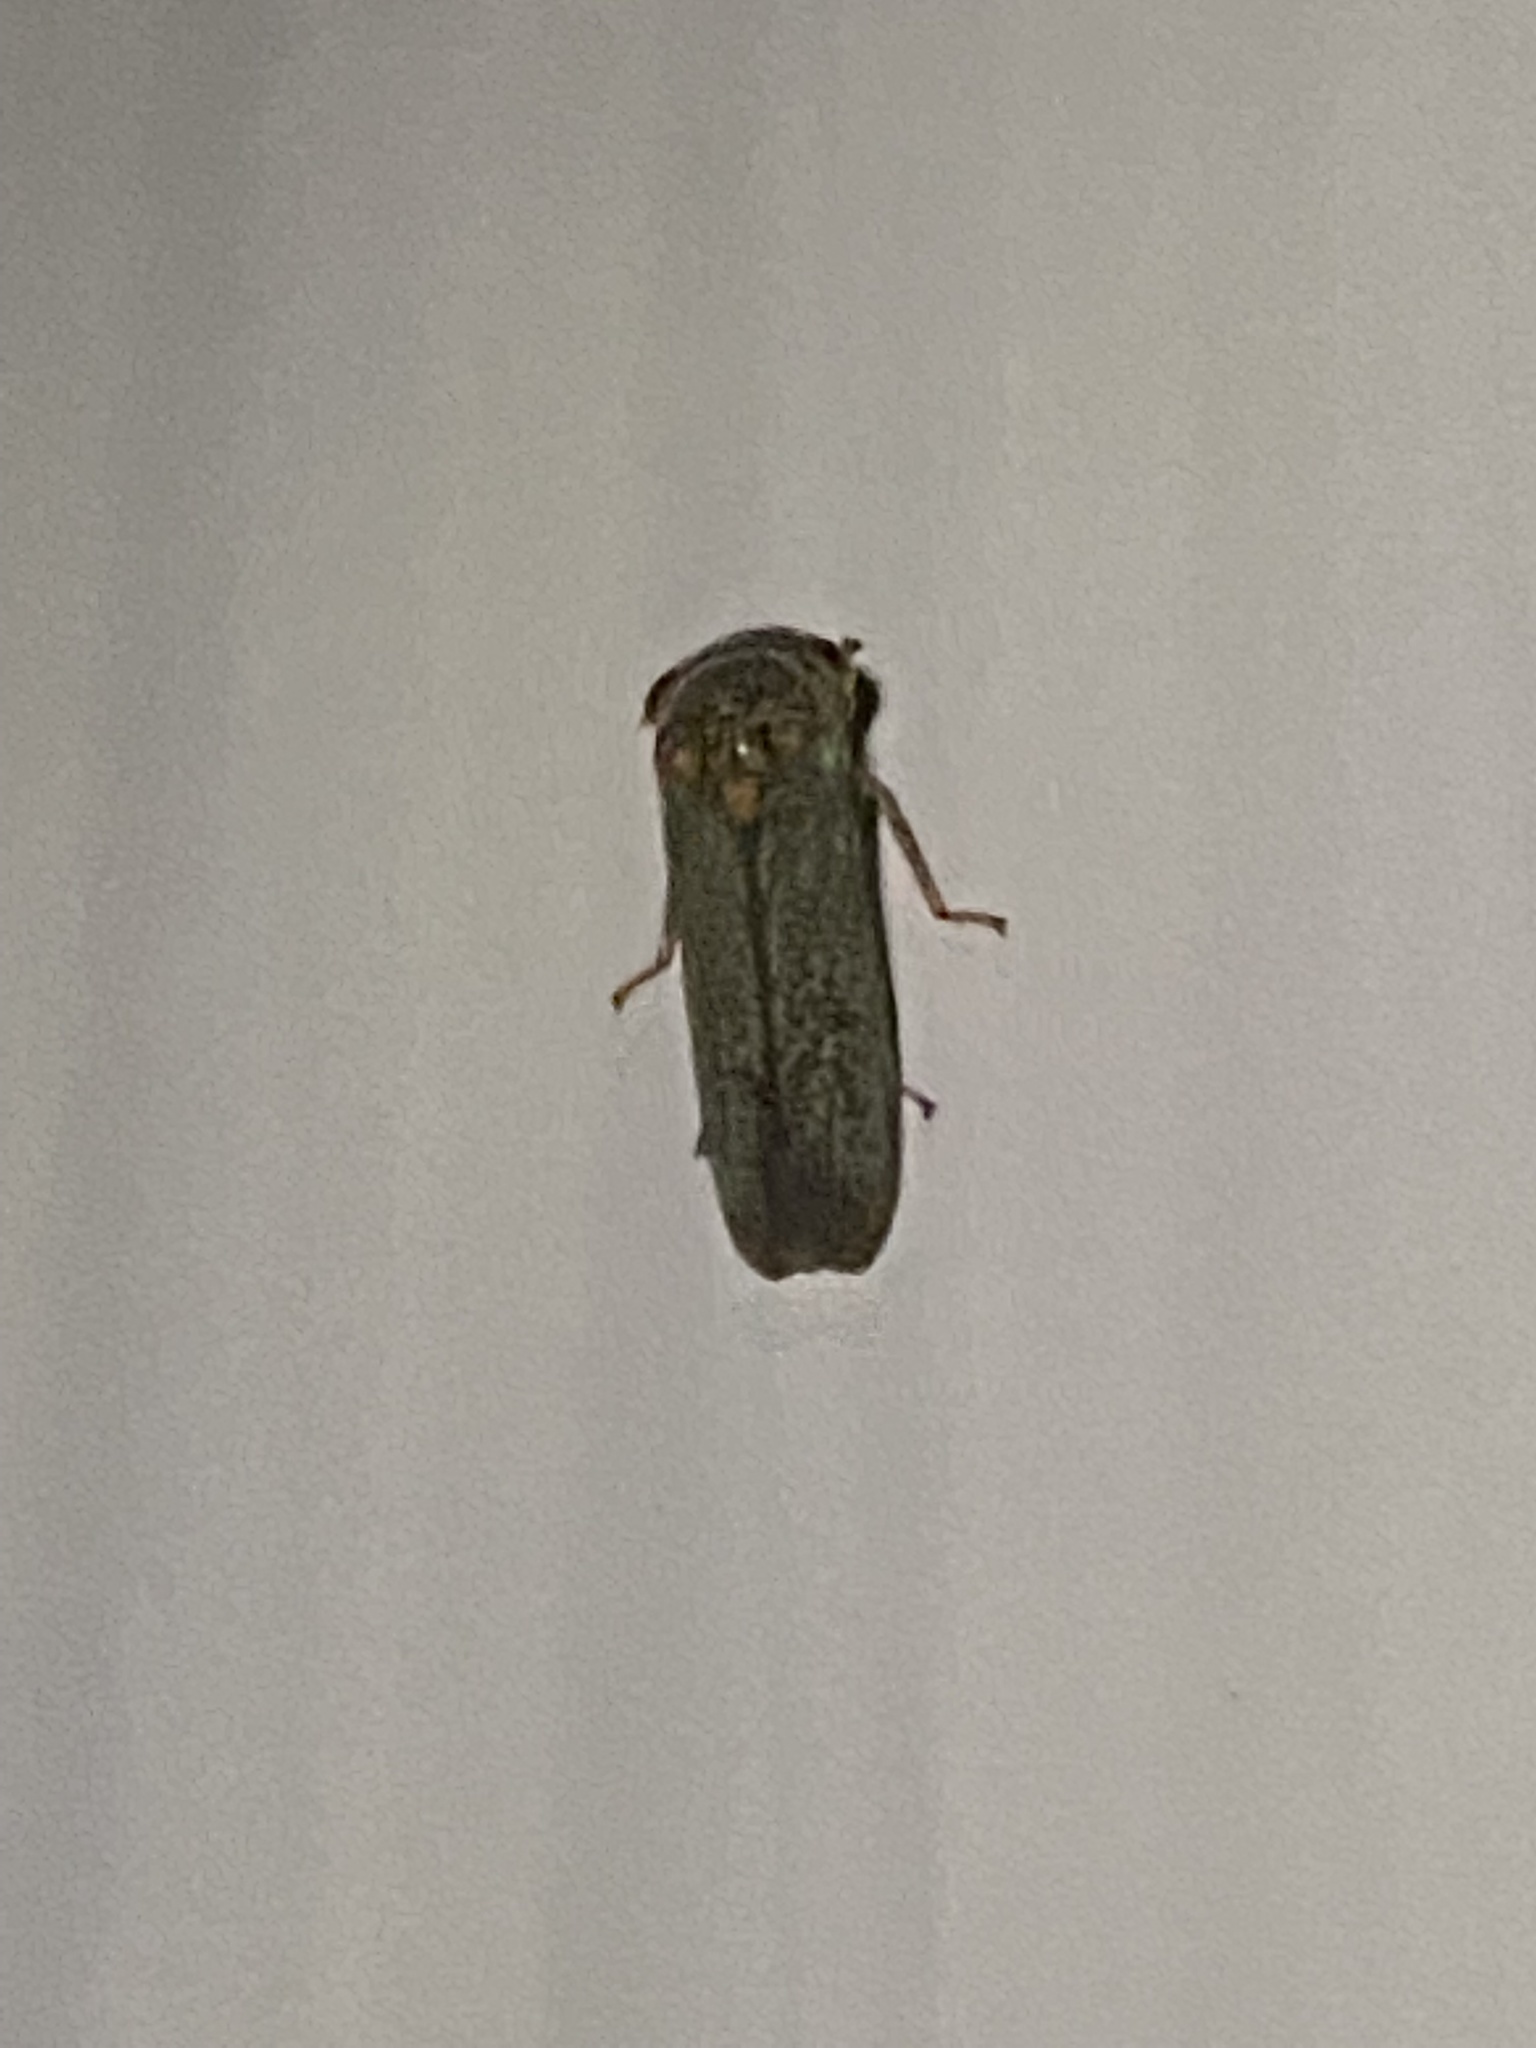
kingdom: Animalia
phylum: Arthropoda
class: Insecta
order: Hemiptera
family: Cicadellidae
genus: Oncometopia
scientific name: Oncometopia orbona
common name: Broad-headed sharpshooter
